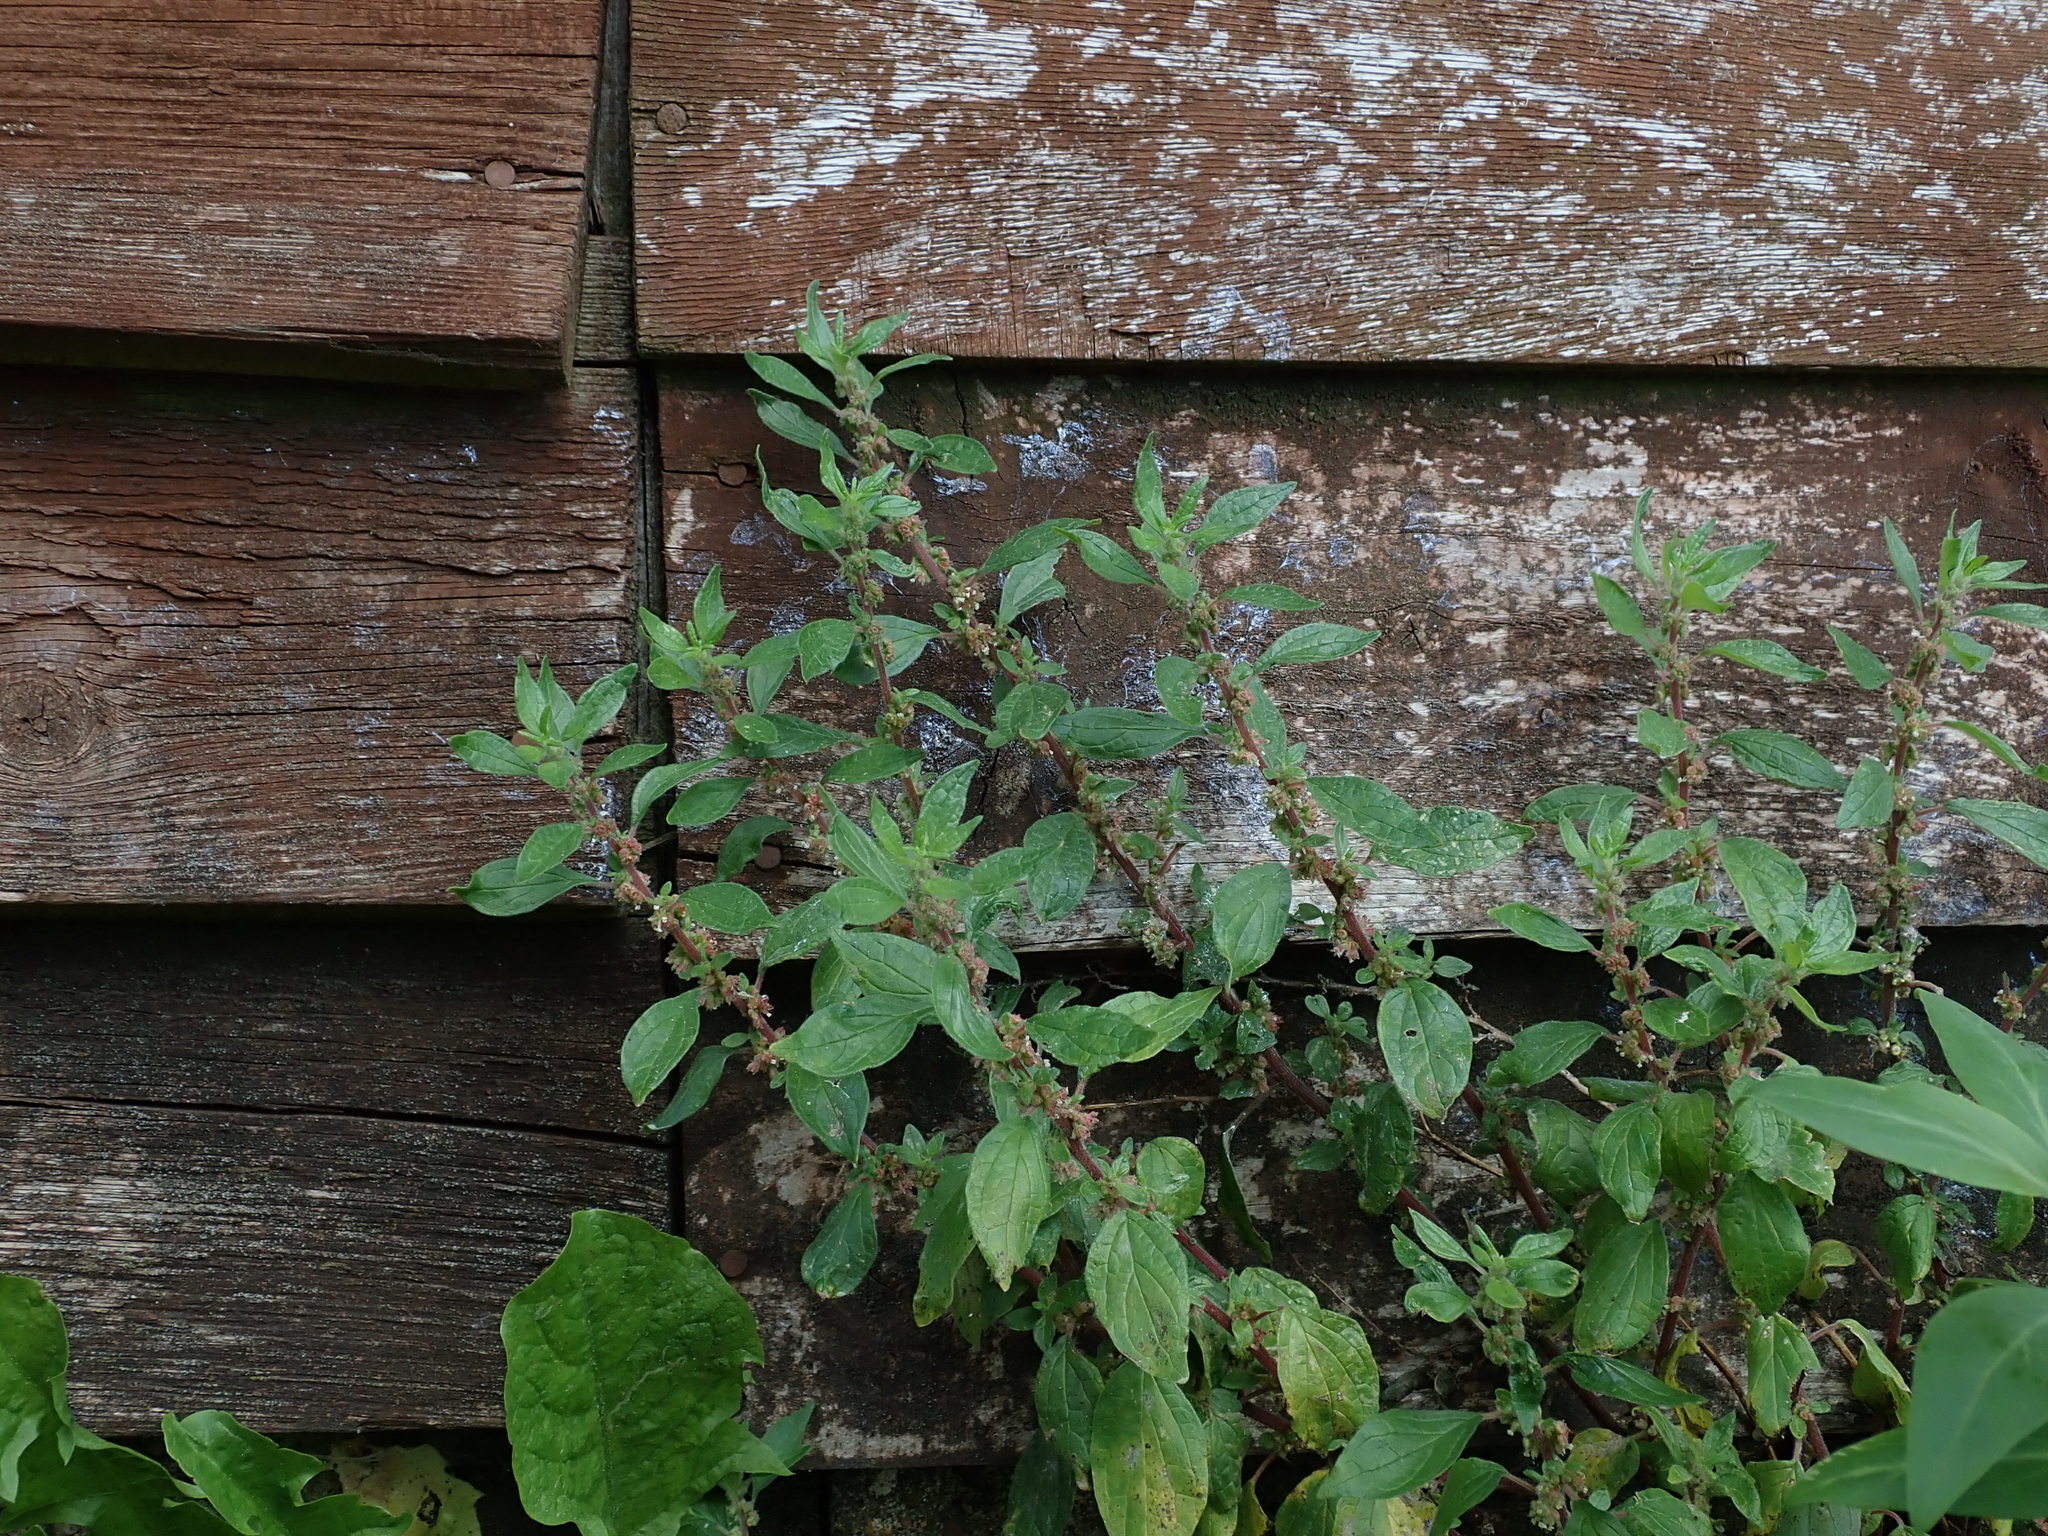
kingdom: Plantae
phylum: Tracheophyta
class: Magnoliopsida
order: Rosales
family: Urticaceae
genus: Parietaria
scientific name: Parietaria judaica
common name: Pellitory-of-the-wall
